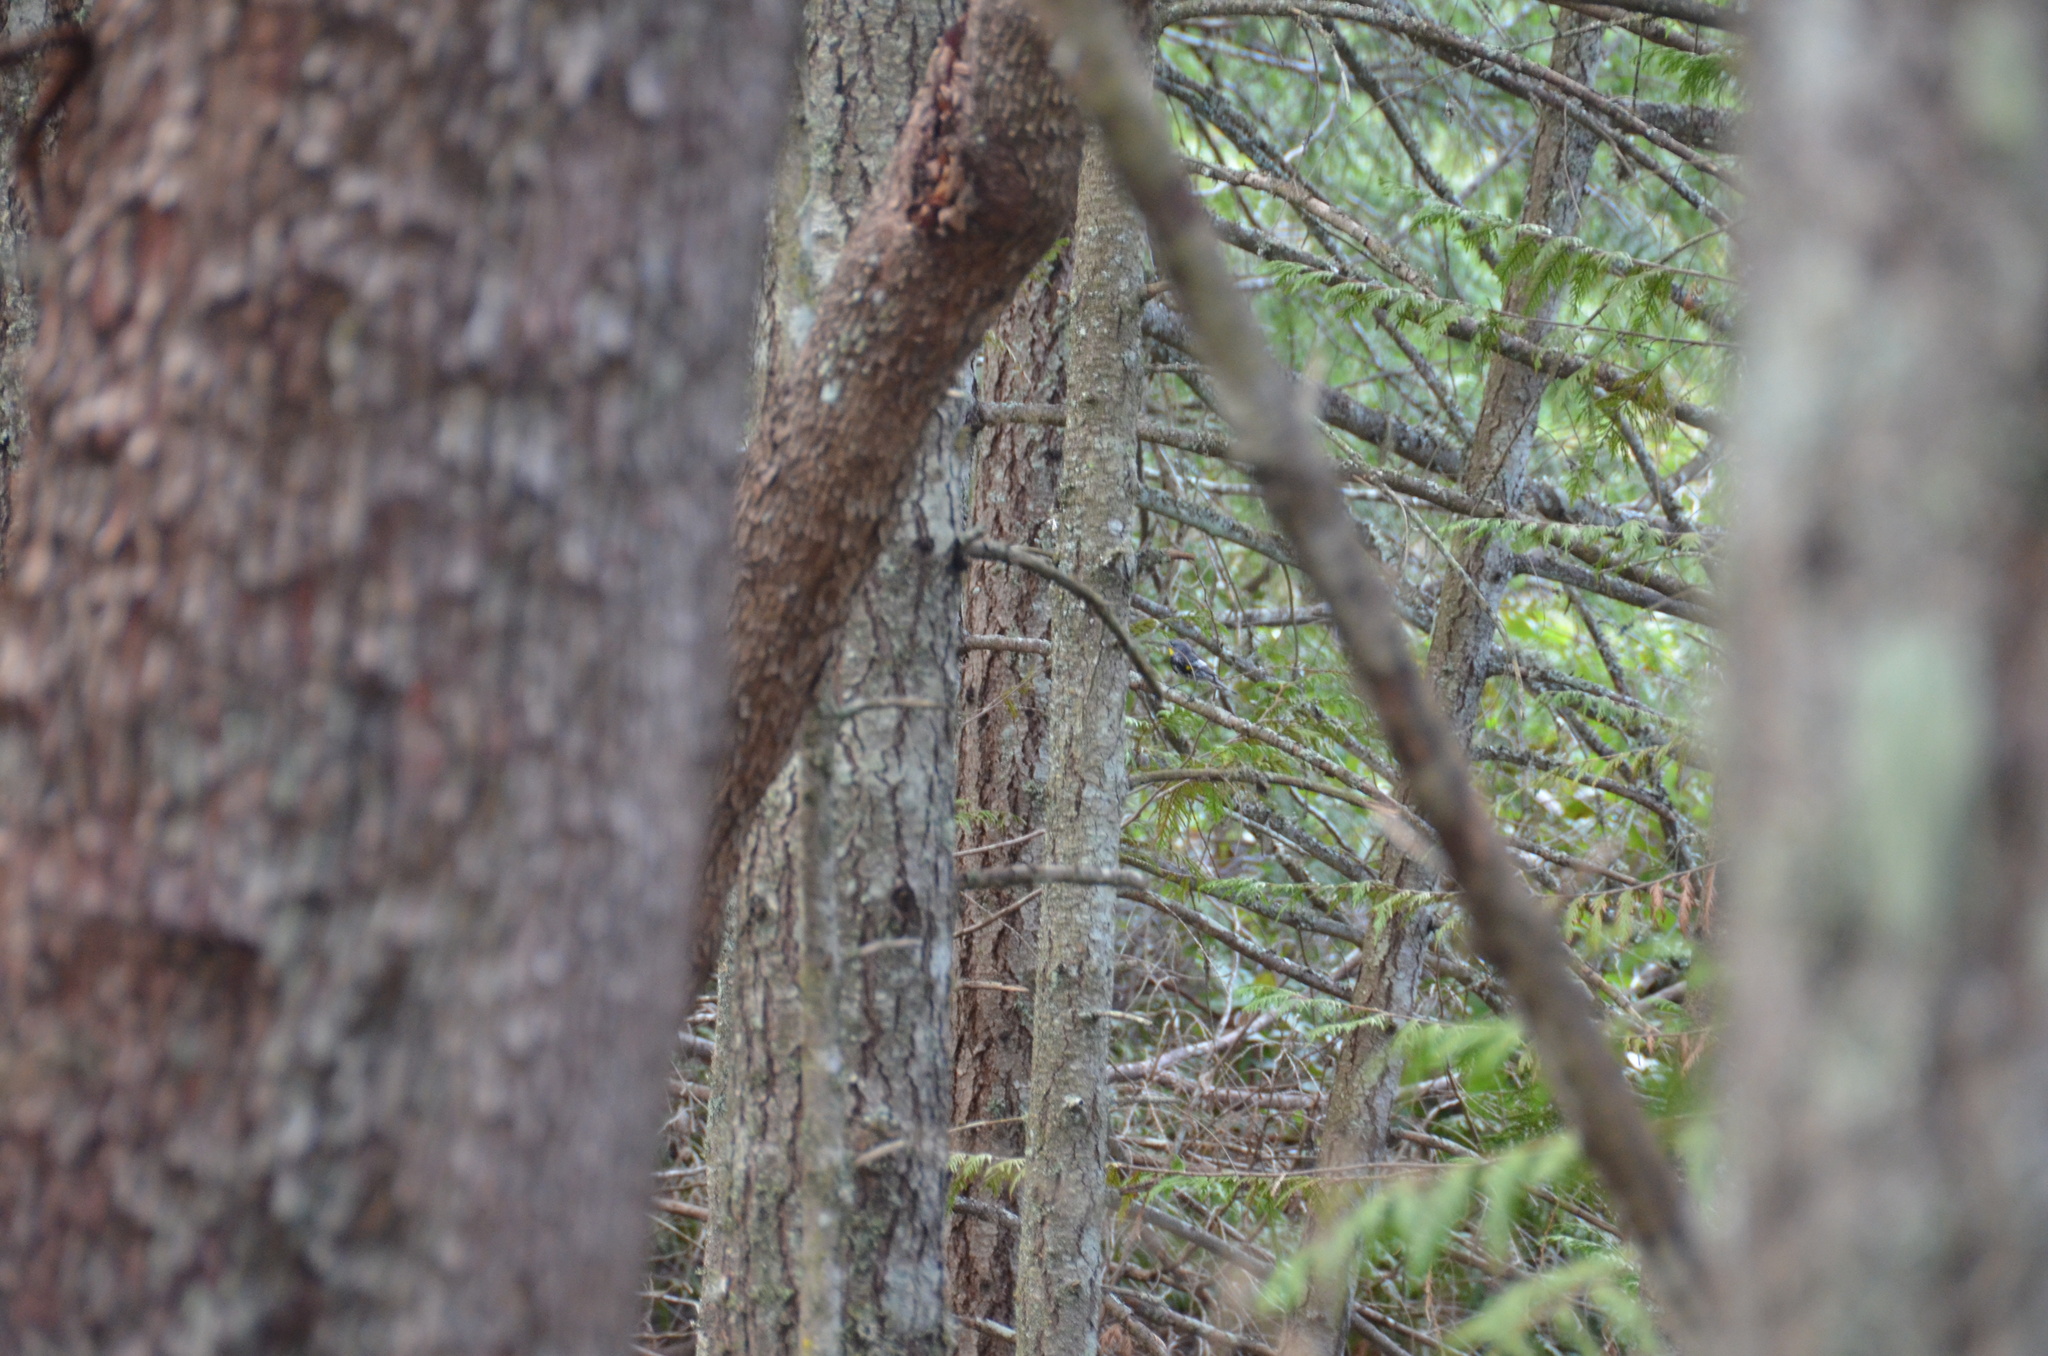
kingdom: Animalia
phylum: Chordata
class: Aves
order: Passeriformes
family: Parulidae
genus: Setophaga
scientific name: Setophaga coronata
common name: Myrtle warbler
